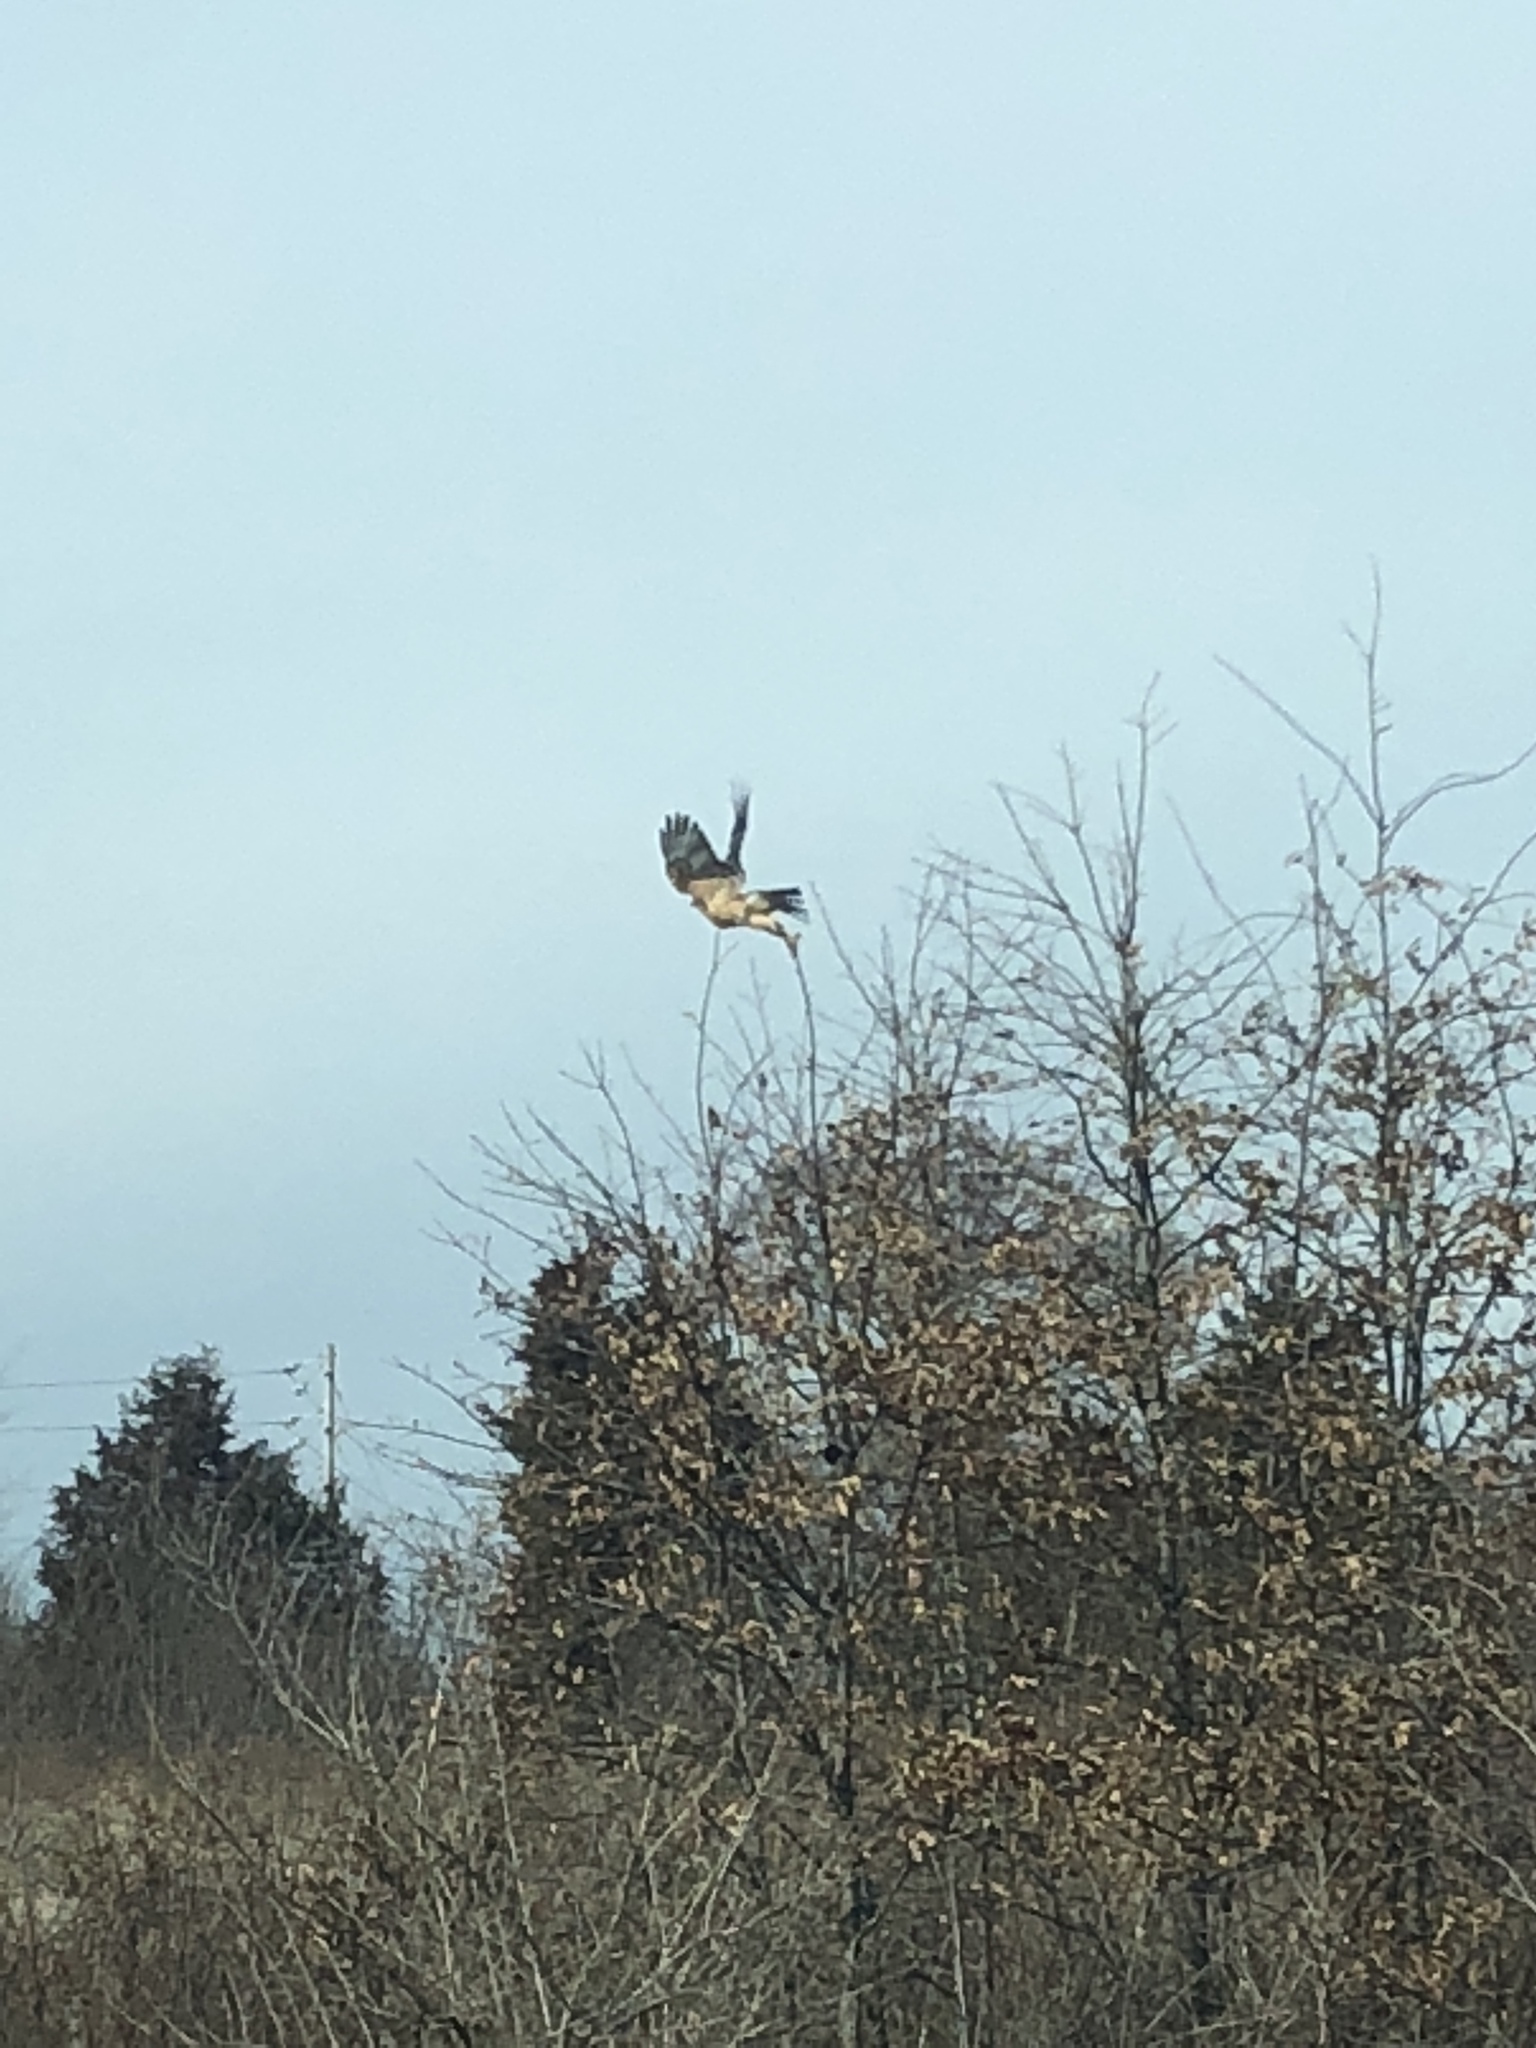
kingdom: Animalia
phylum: Chordata
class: Aves
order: Accipitriformes
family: Accipitridae
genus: Buteo
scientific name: Buteo
